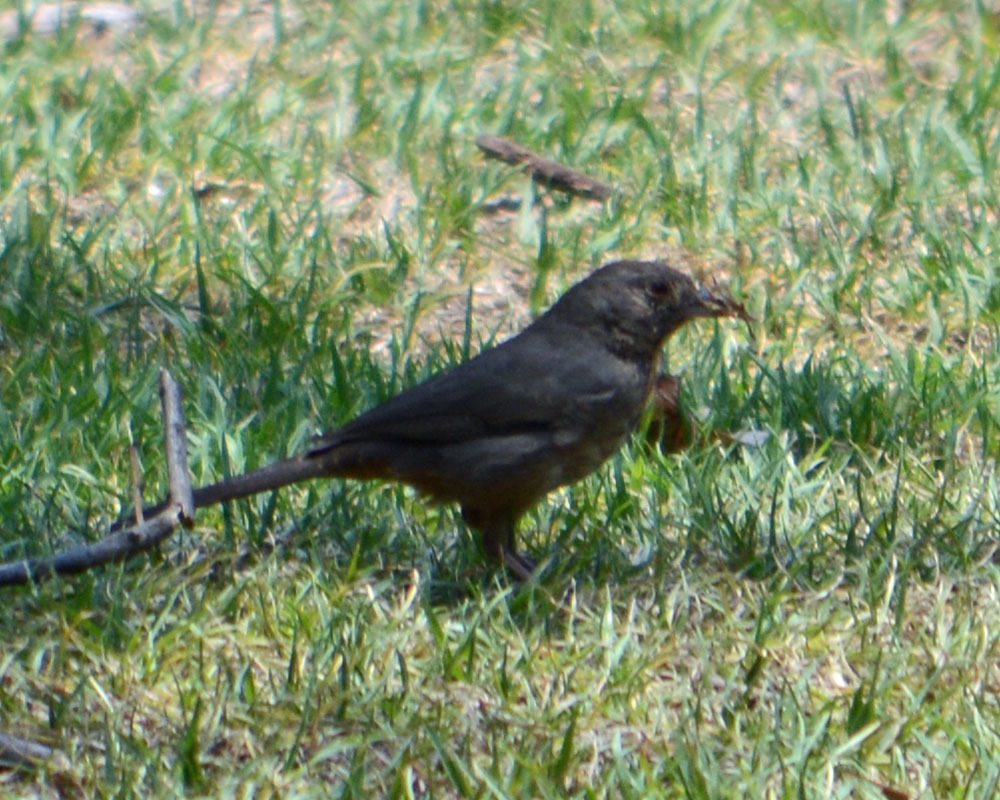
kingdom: Animalia
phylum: Chordata
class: Aves
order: Passeriformes
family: Passerellidae
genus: Melozone
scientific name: Melozone fusca
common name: Canyon towhee
